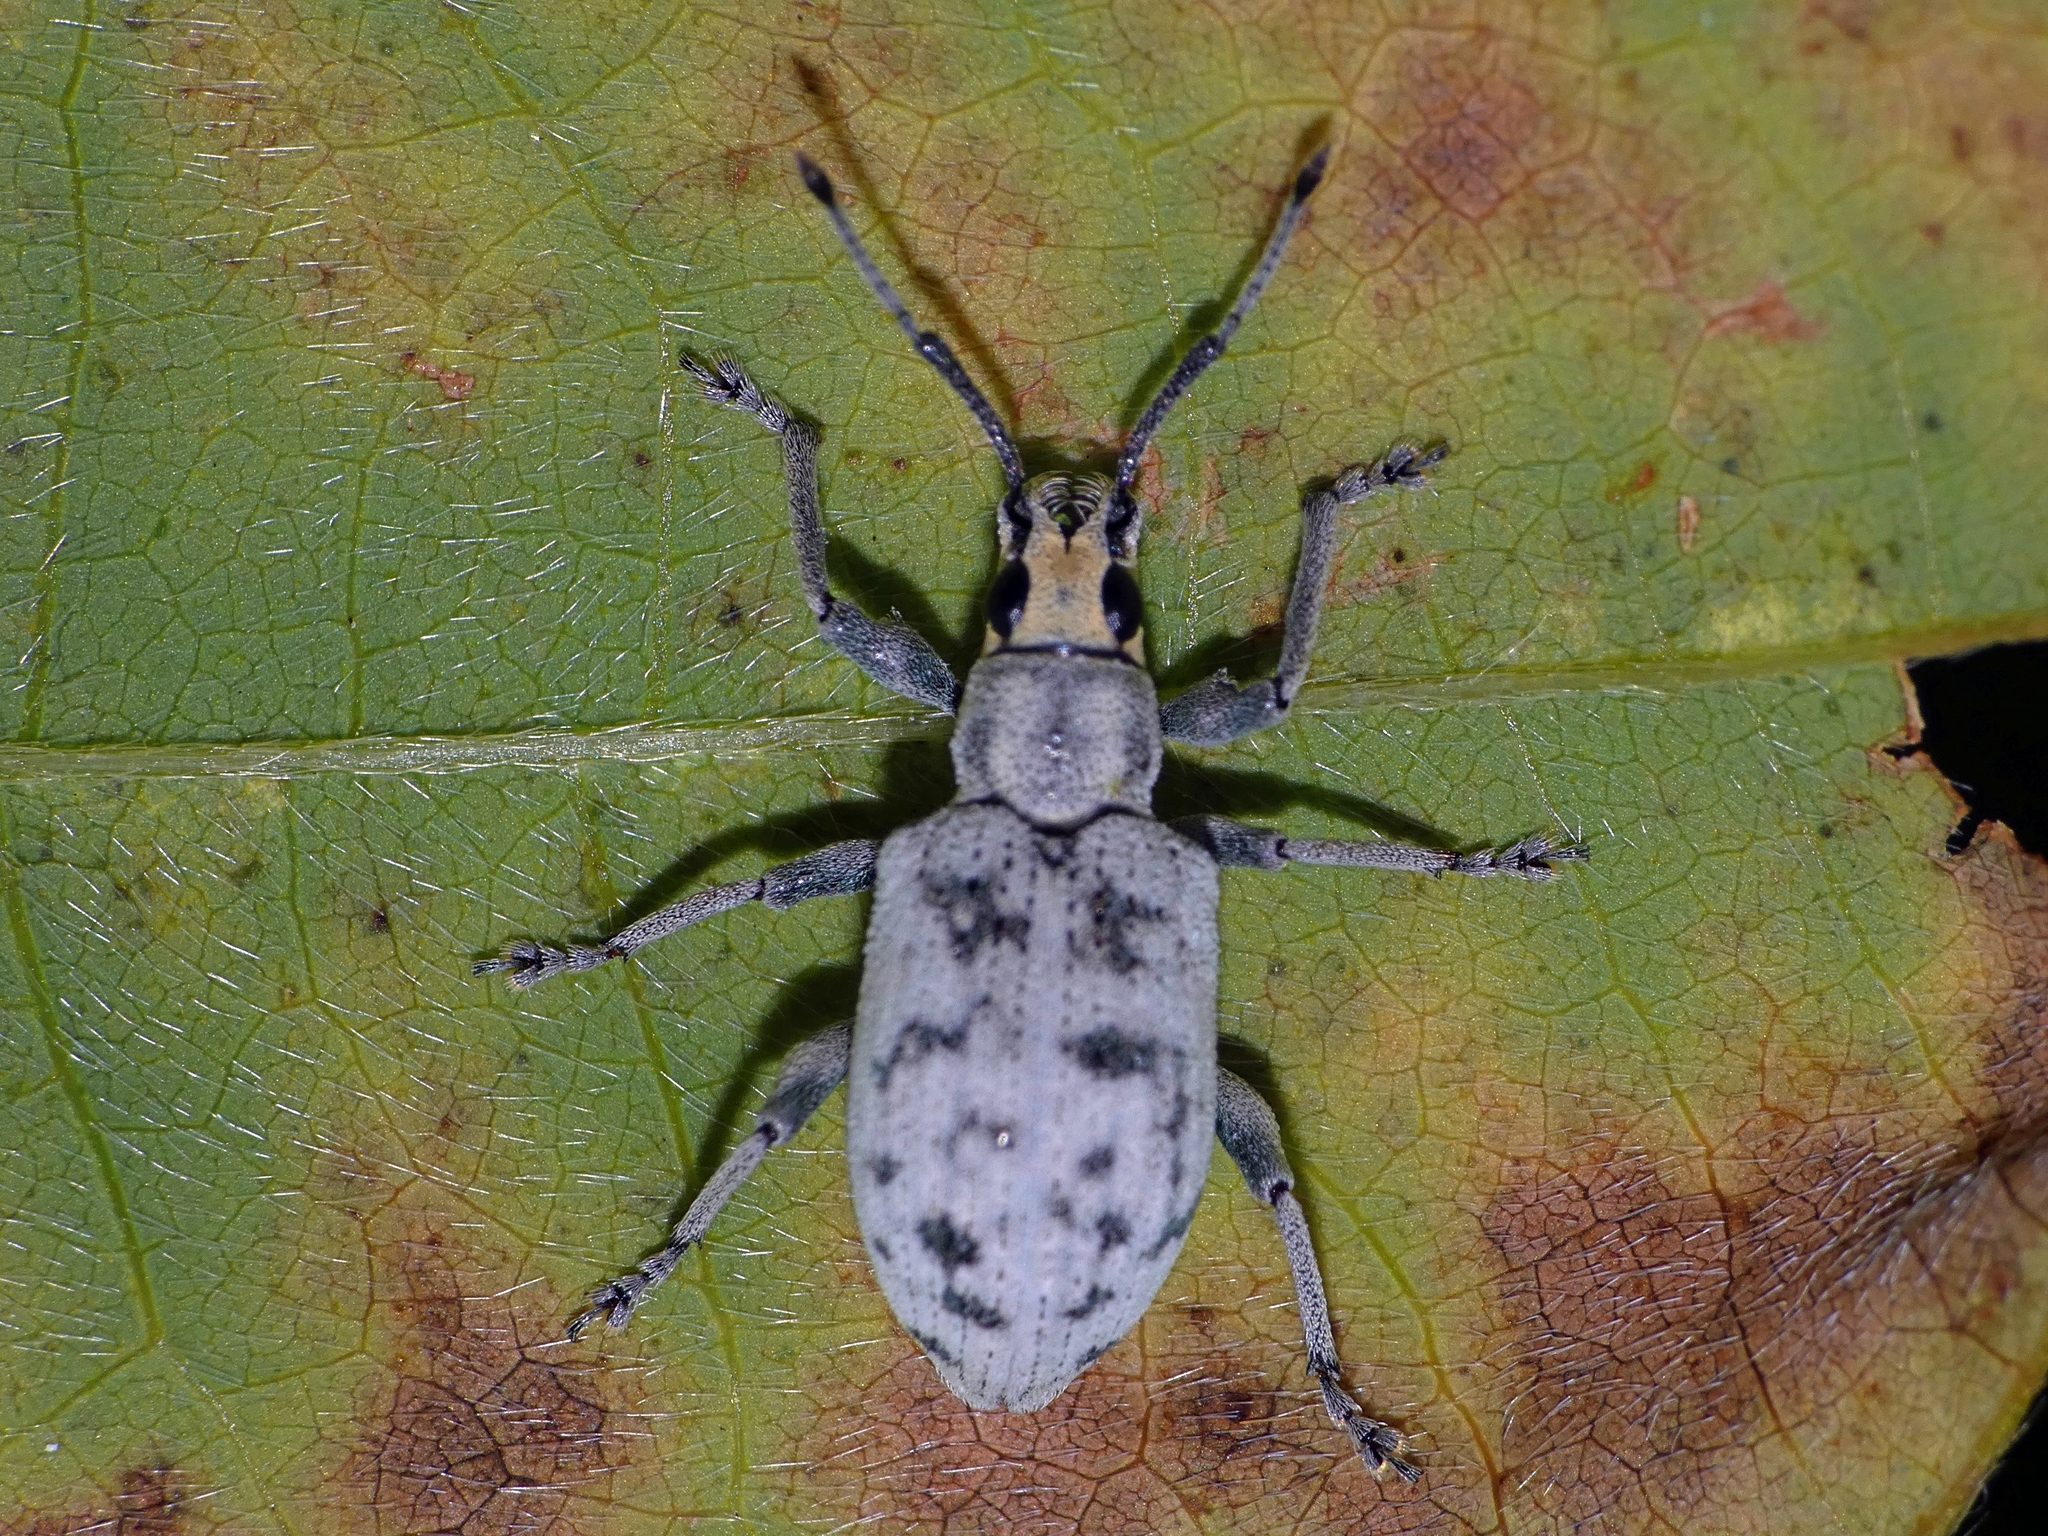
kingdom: Animalia
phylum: Arthropoda
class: Insecta
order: Coleoptera
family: Curculionidae
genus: Myllocerus
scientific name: Myllocerus undecimpustulatus
